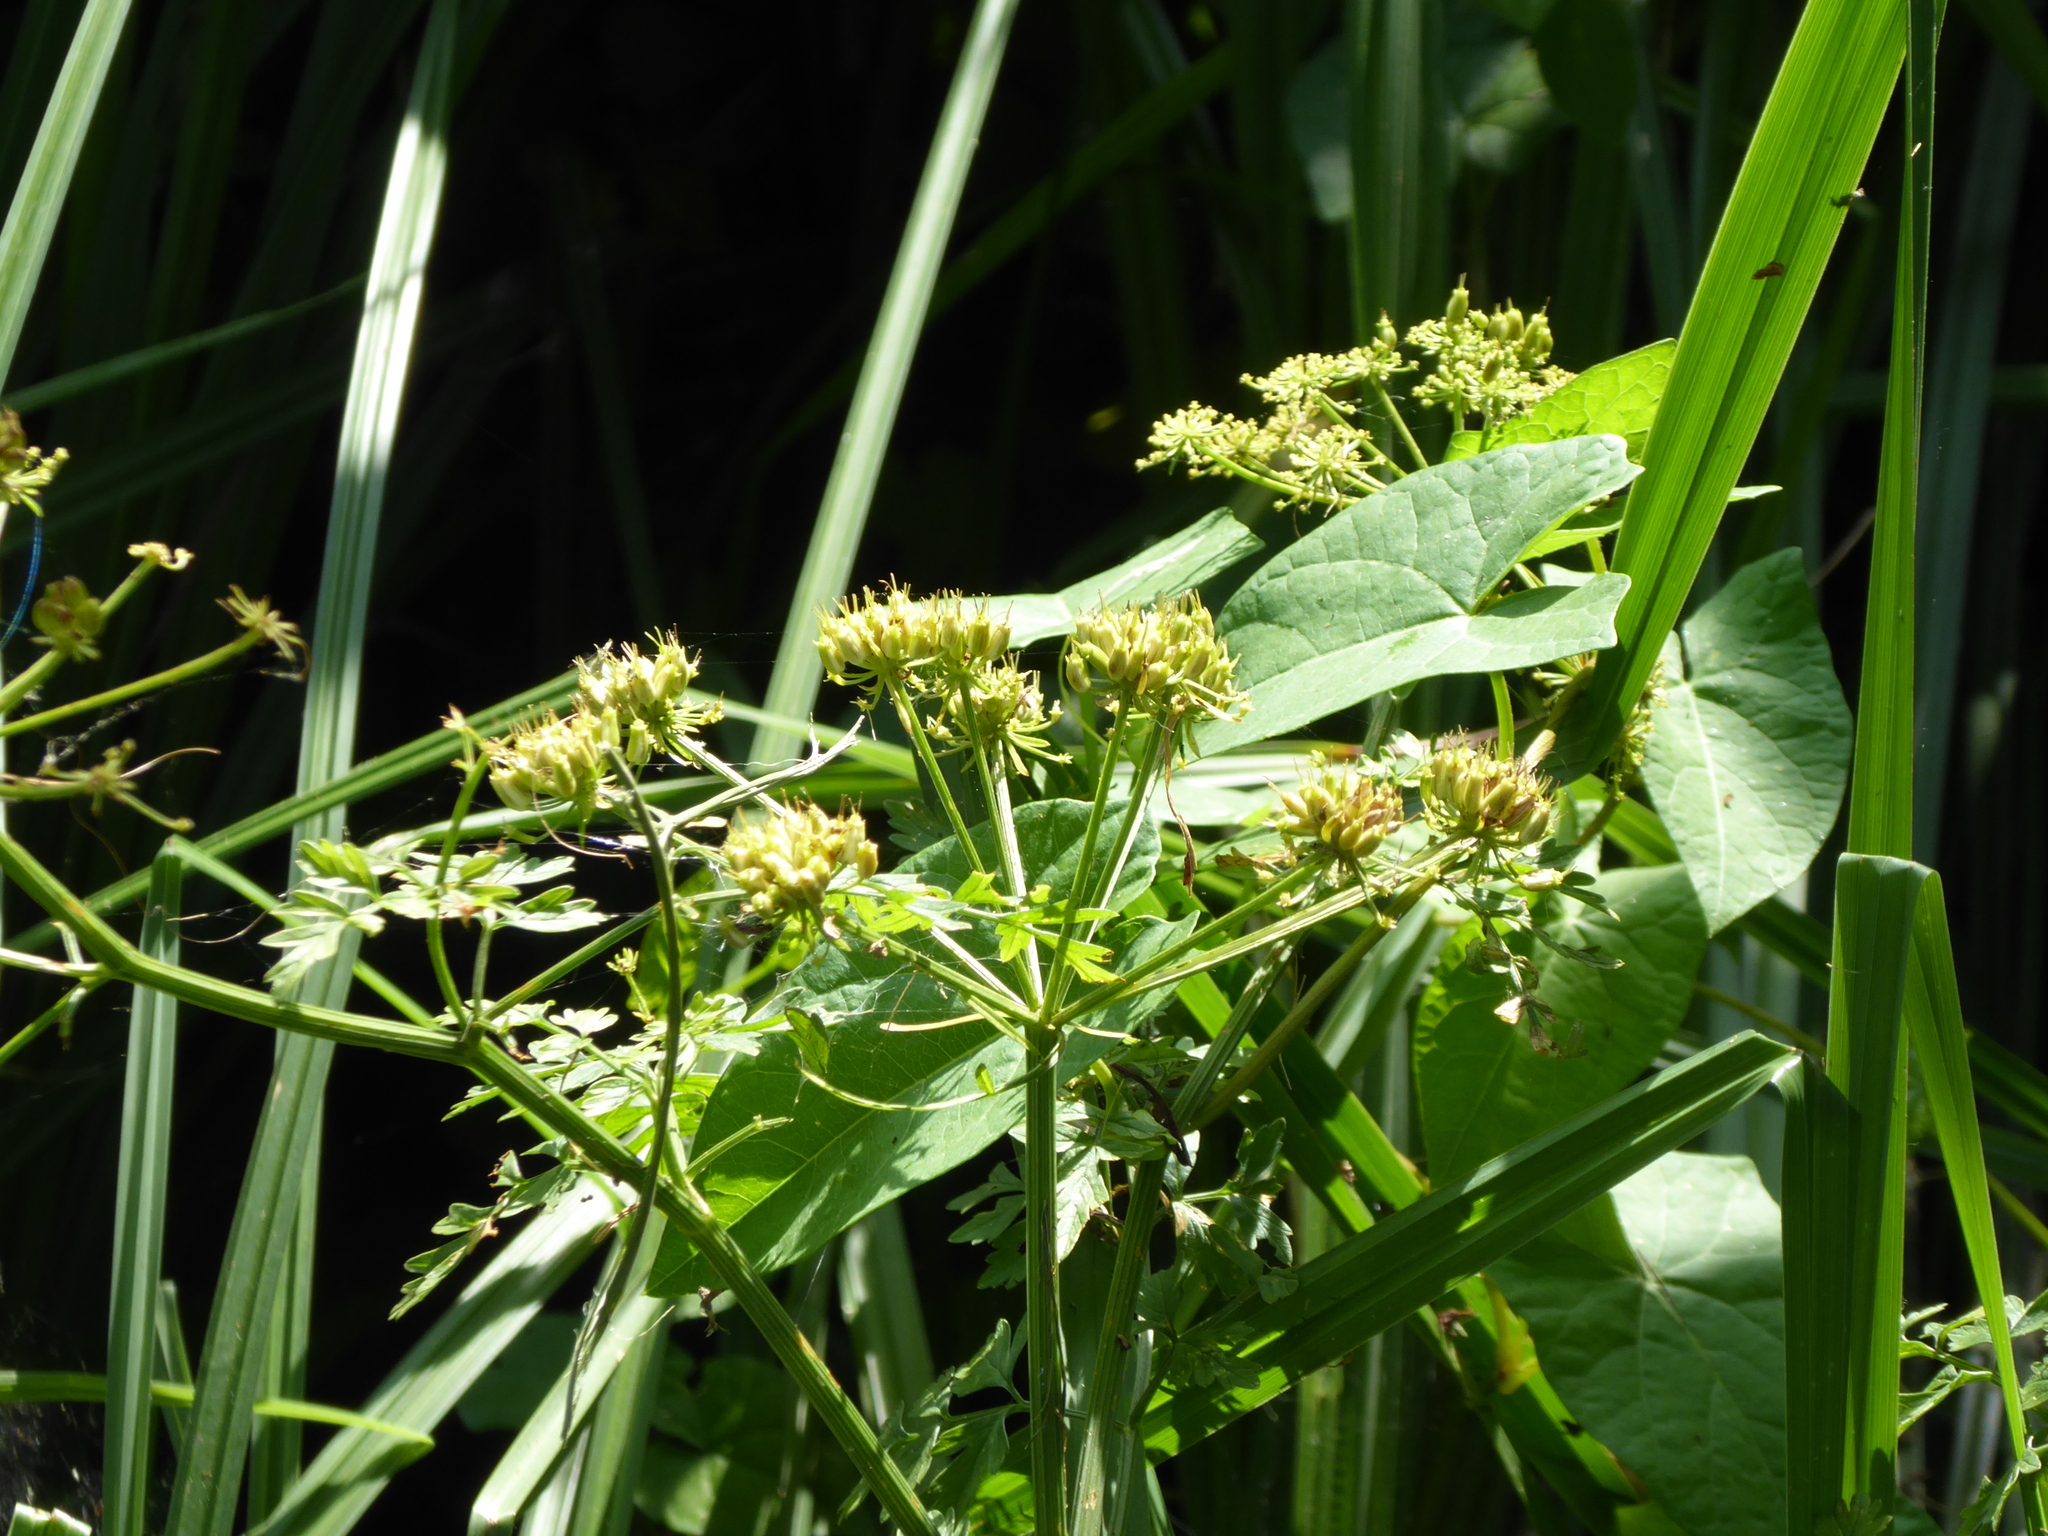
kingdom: Plantae
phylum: Tracheophyta
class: Magnoliopsida
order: Apiales
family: Apiaceae
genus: Oenanthe
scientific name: Oenanthe crocata
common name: Hemlock water-dropwort
